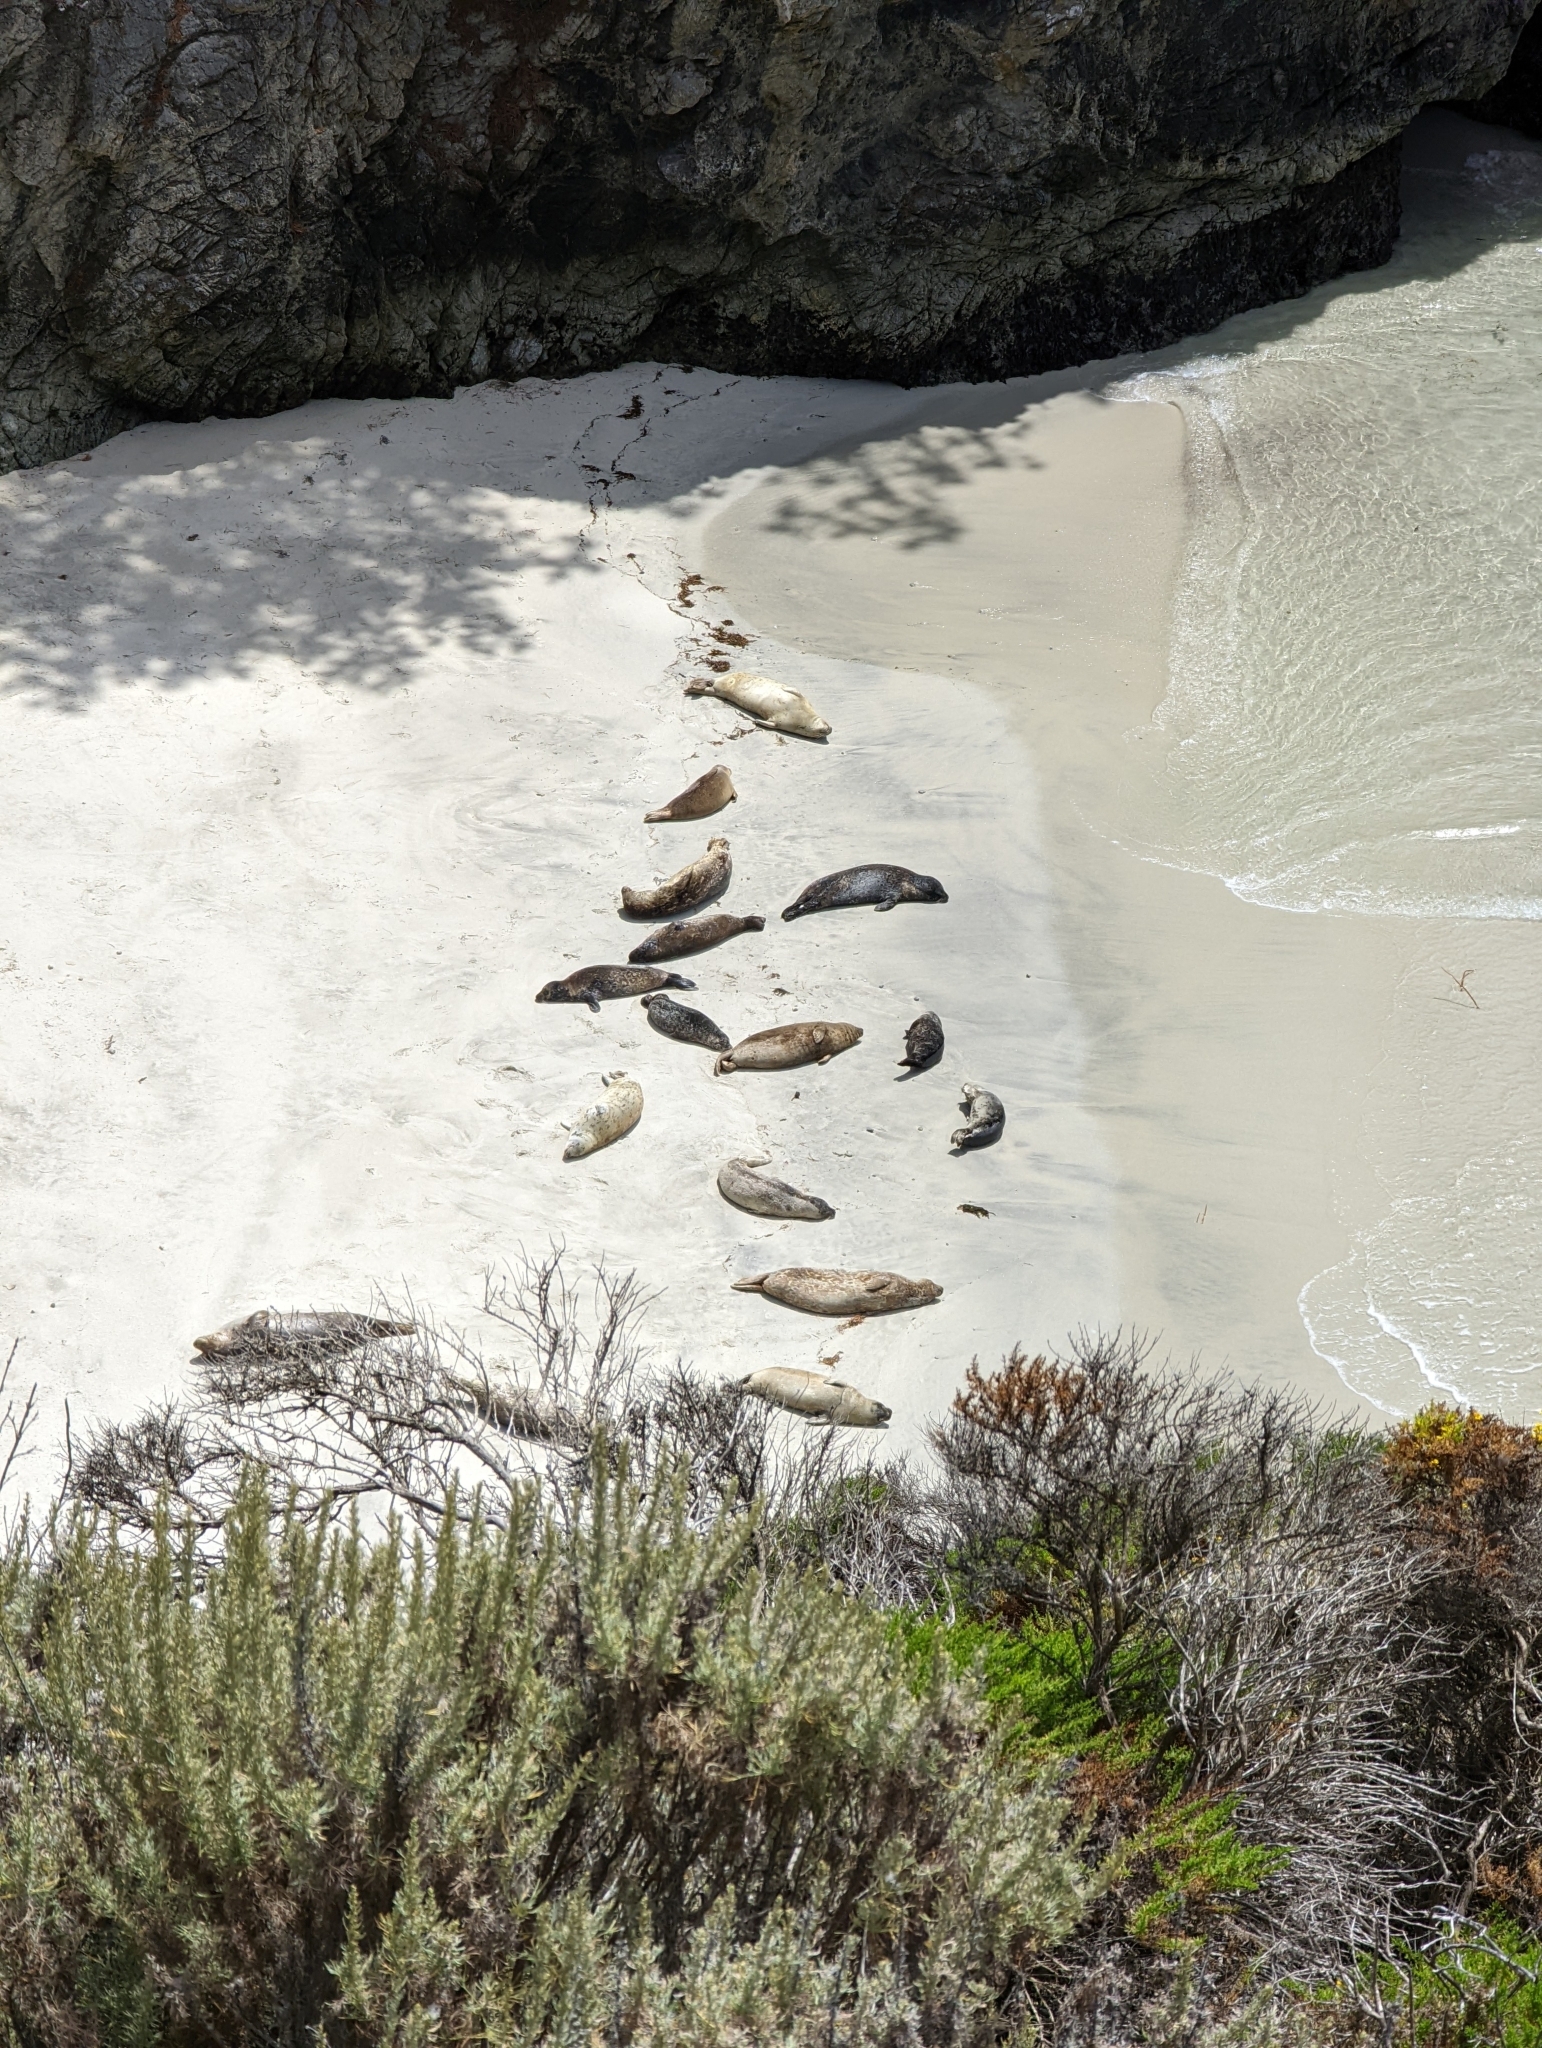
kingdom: Animalia
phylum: Chordata
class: Mammalia
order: Carnivora
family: Phocidae
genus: Phoca
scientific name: Phoca vitulina
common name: Harbor seal
